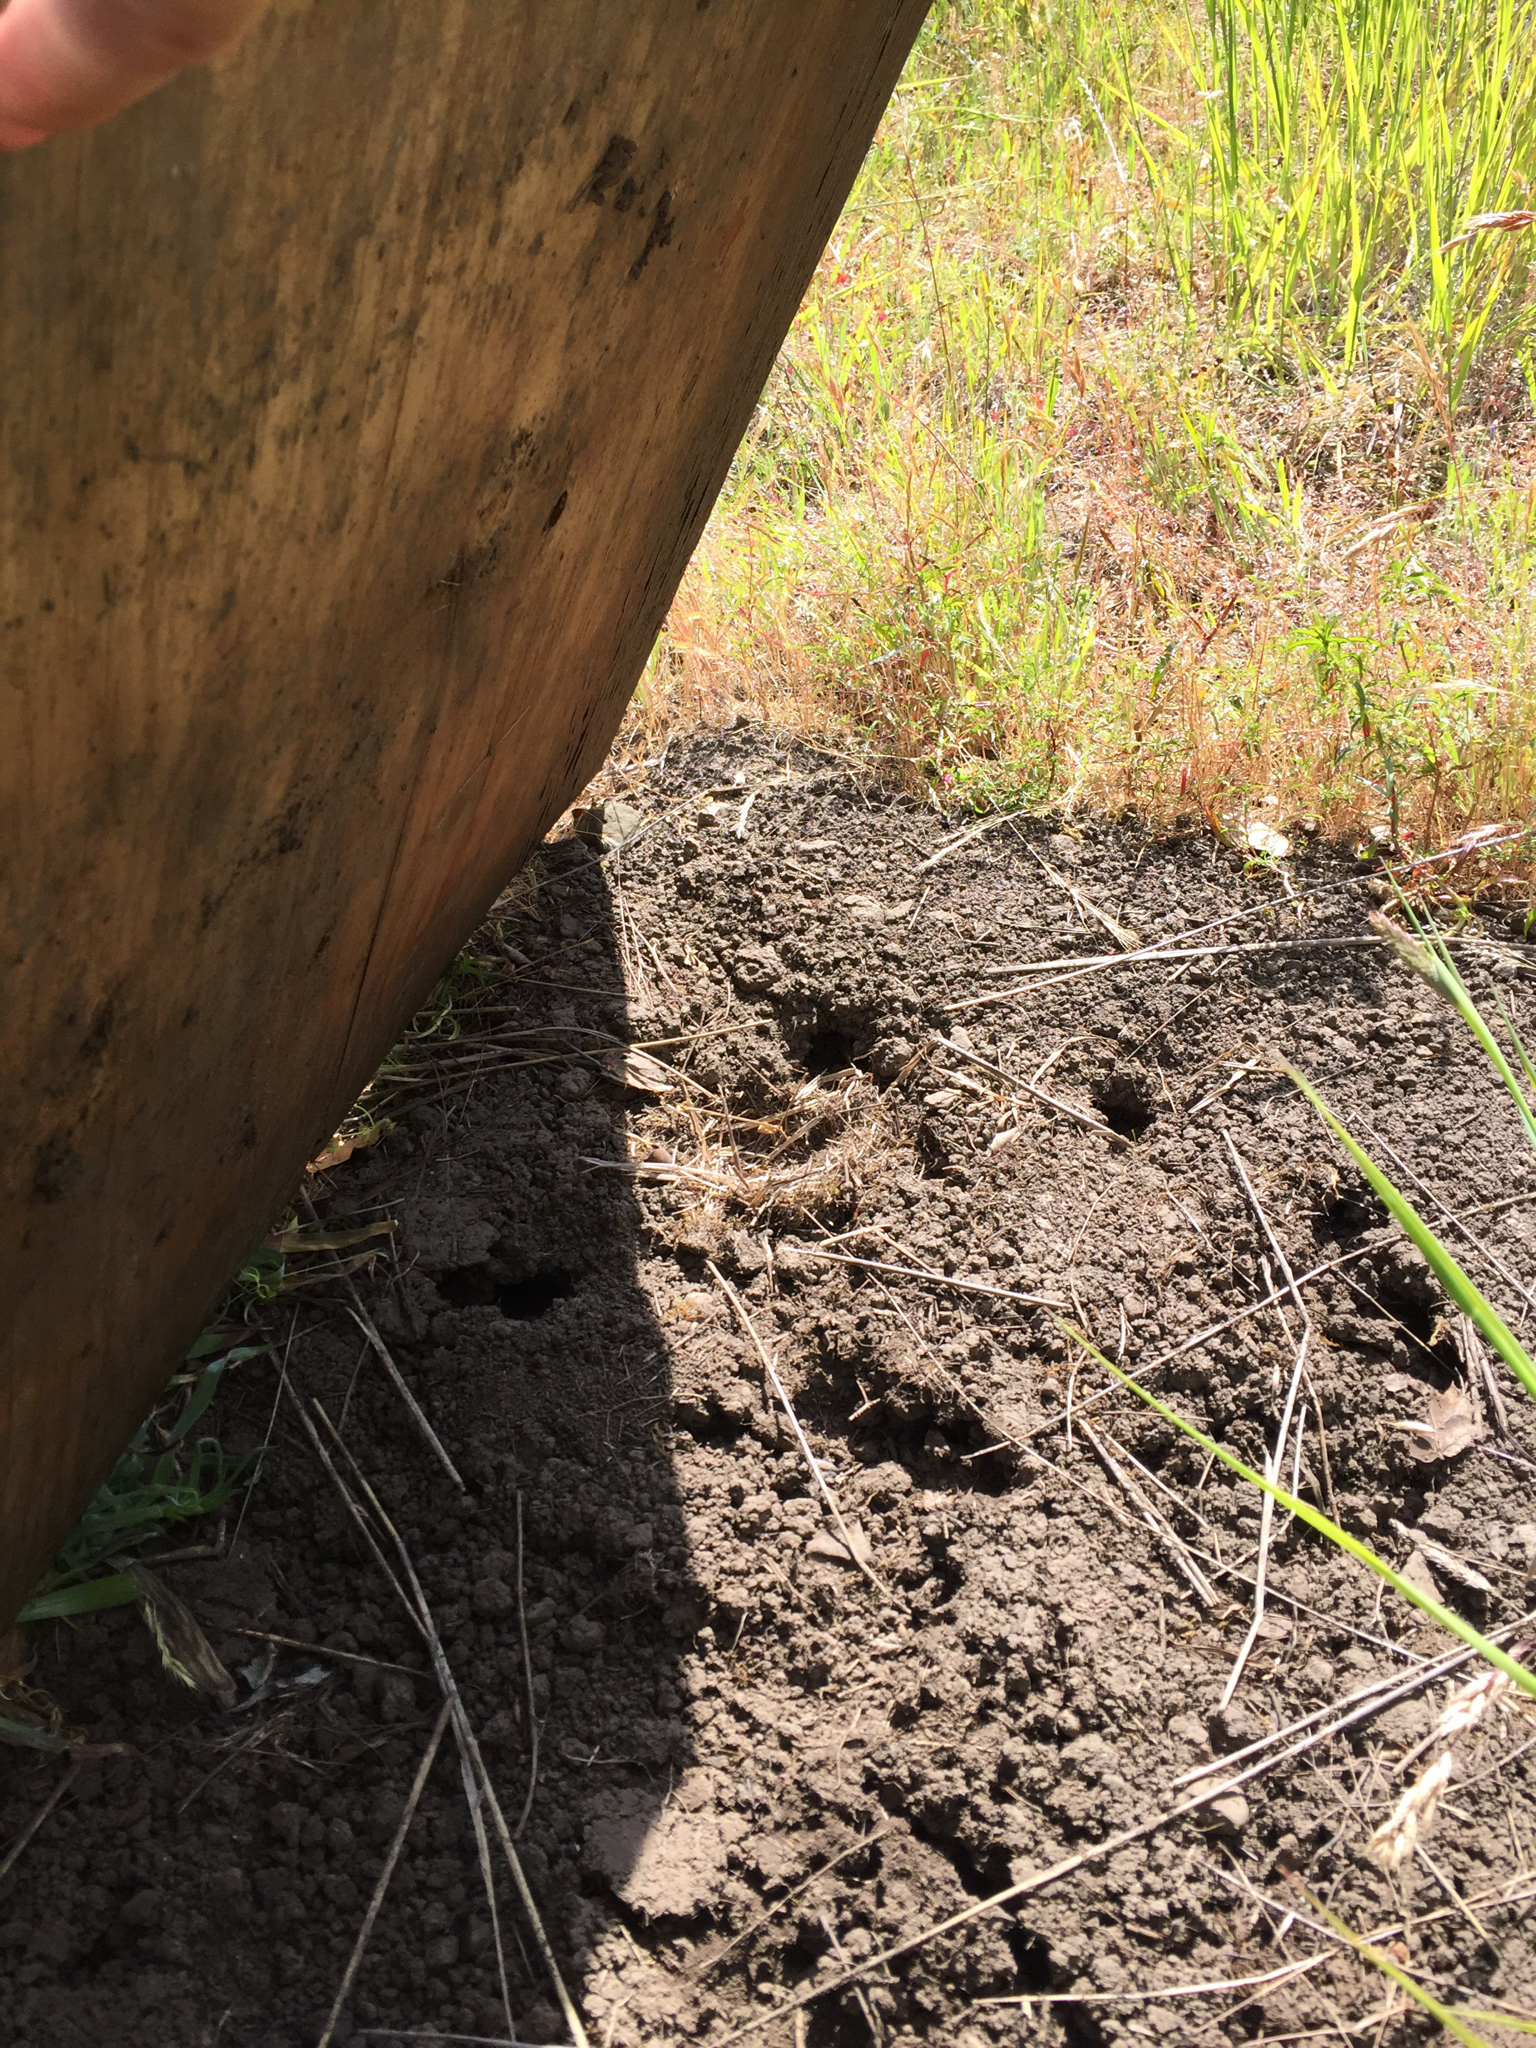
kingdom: Animalia
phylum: Chordata
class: Squamata
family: Phrynosomatidae
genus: Sceloporus
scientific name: Sceloporus occidentalis
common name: Western fence lizard
